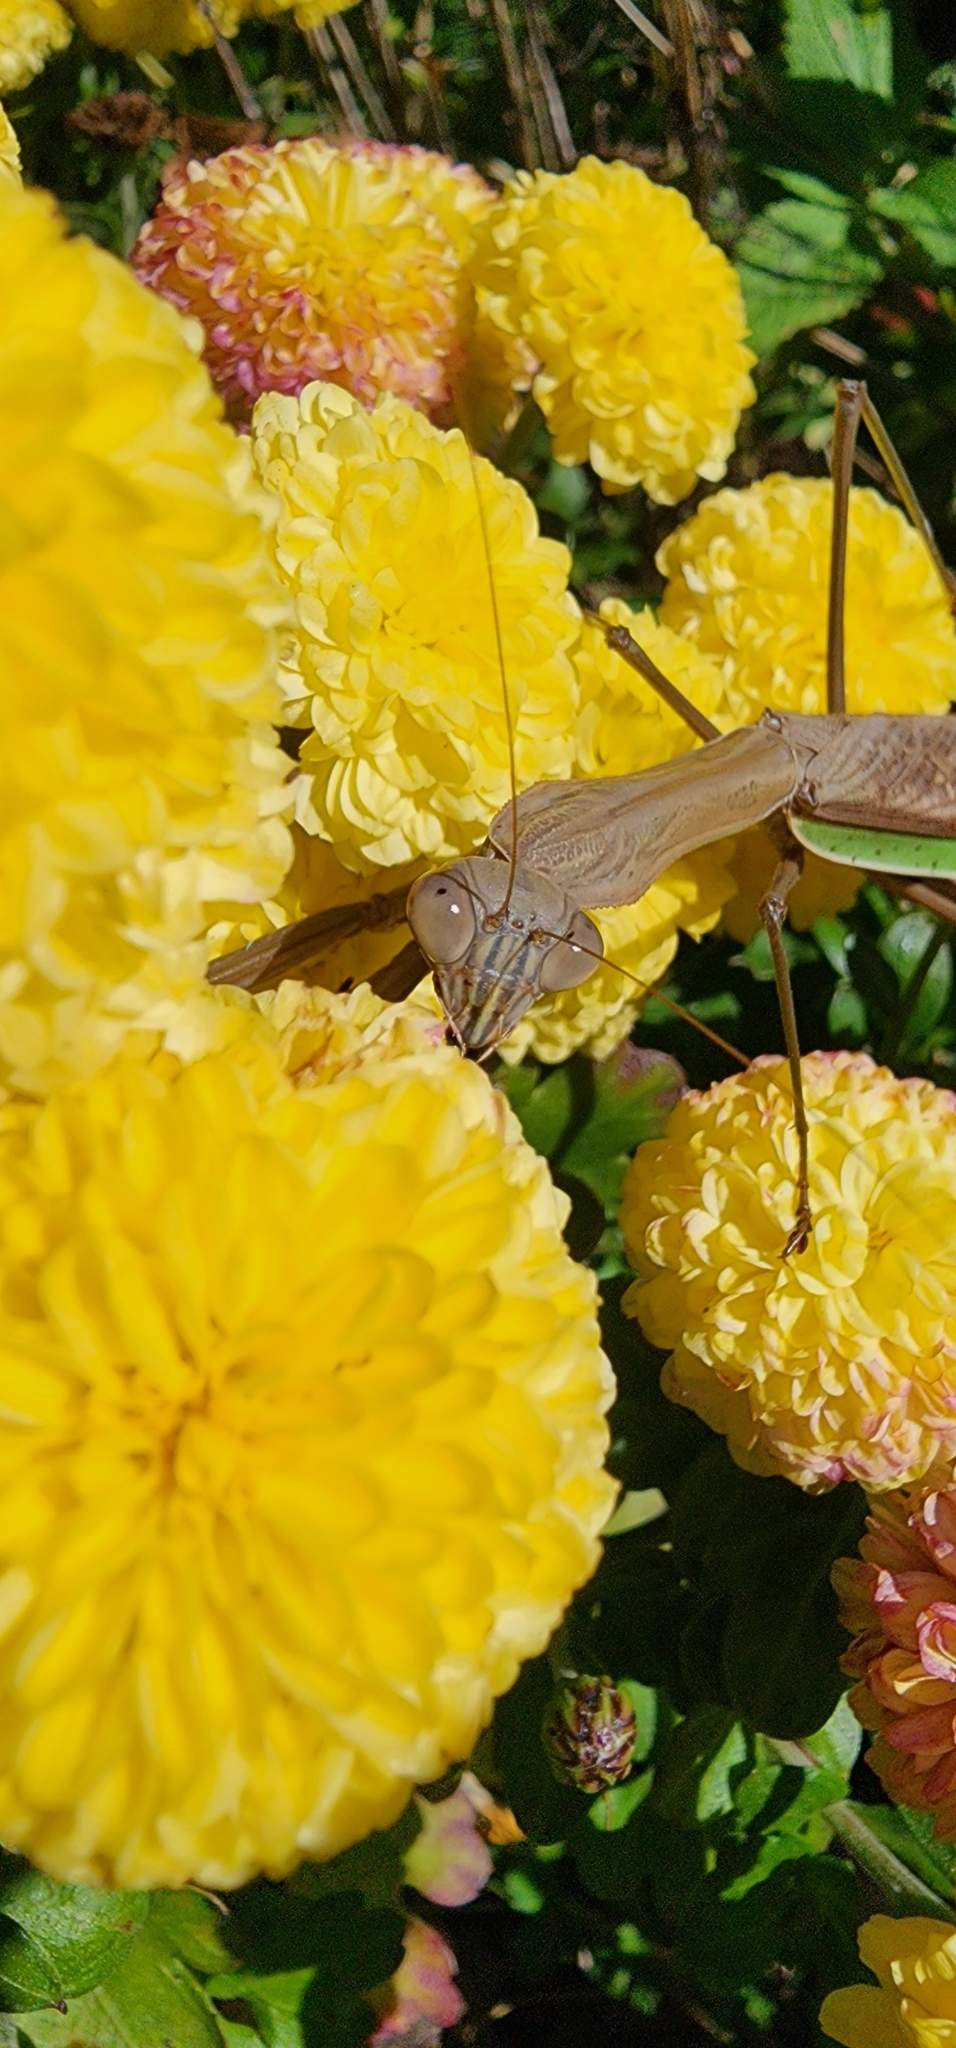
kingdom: Animalia
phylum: Arthropoda
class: Insecta
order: Mantodea
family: Mantidae
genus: Tenodera
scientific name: Tenodera sinensis
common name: Chinese mantis
